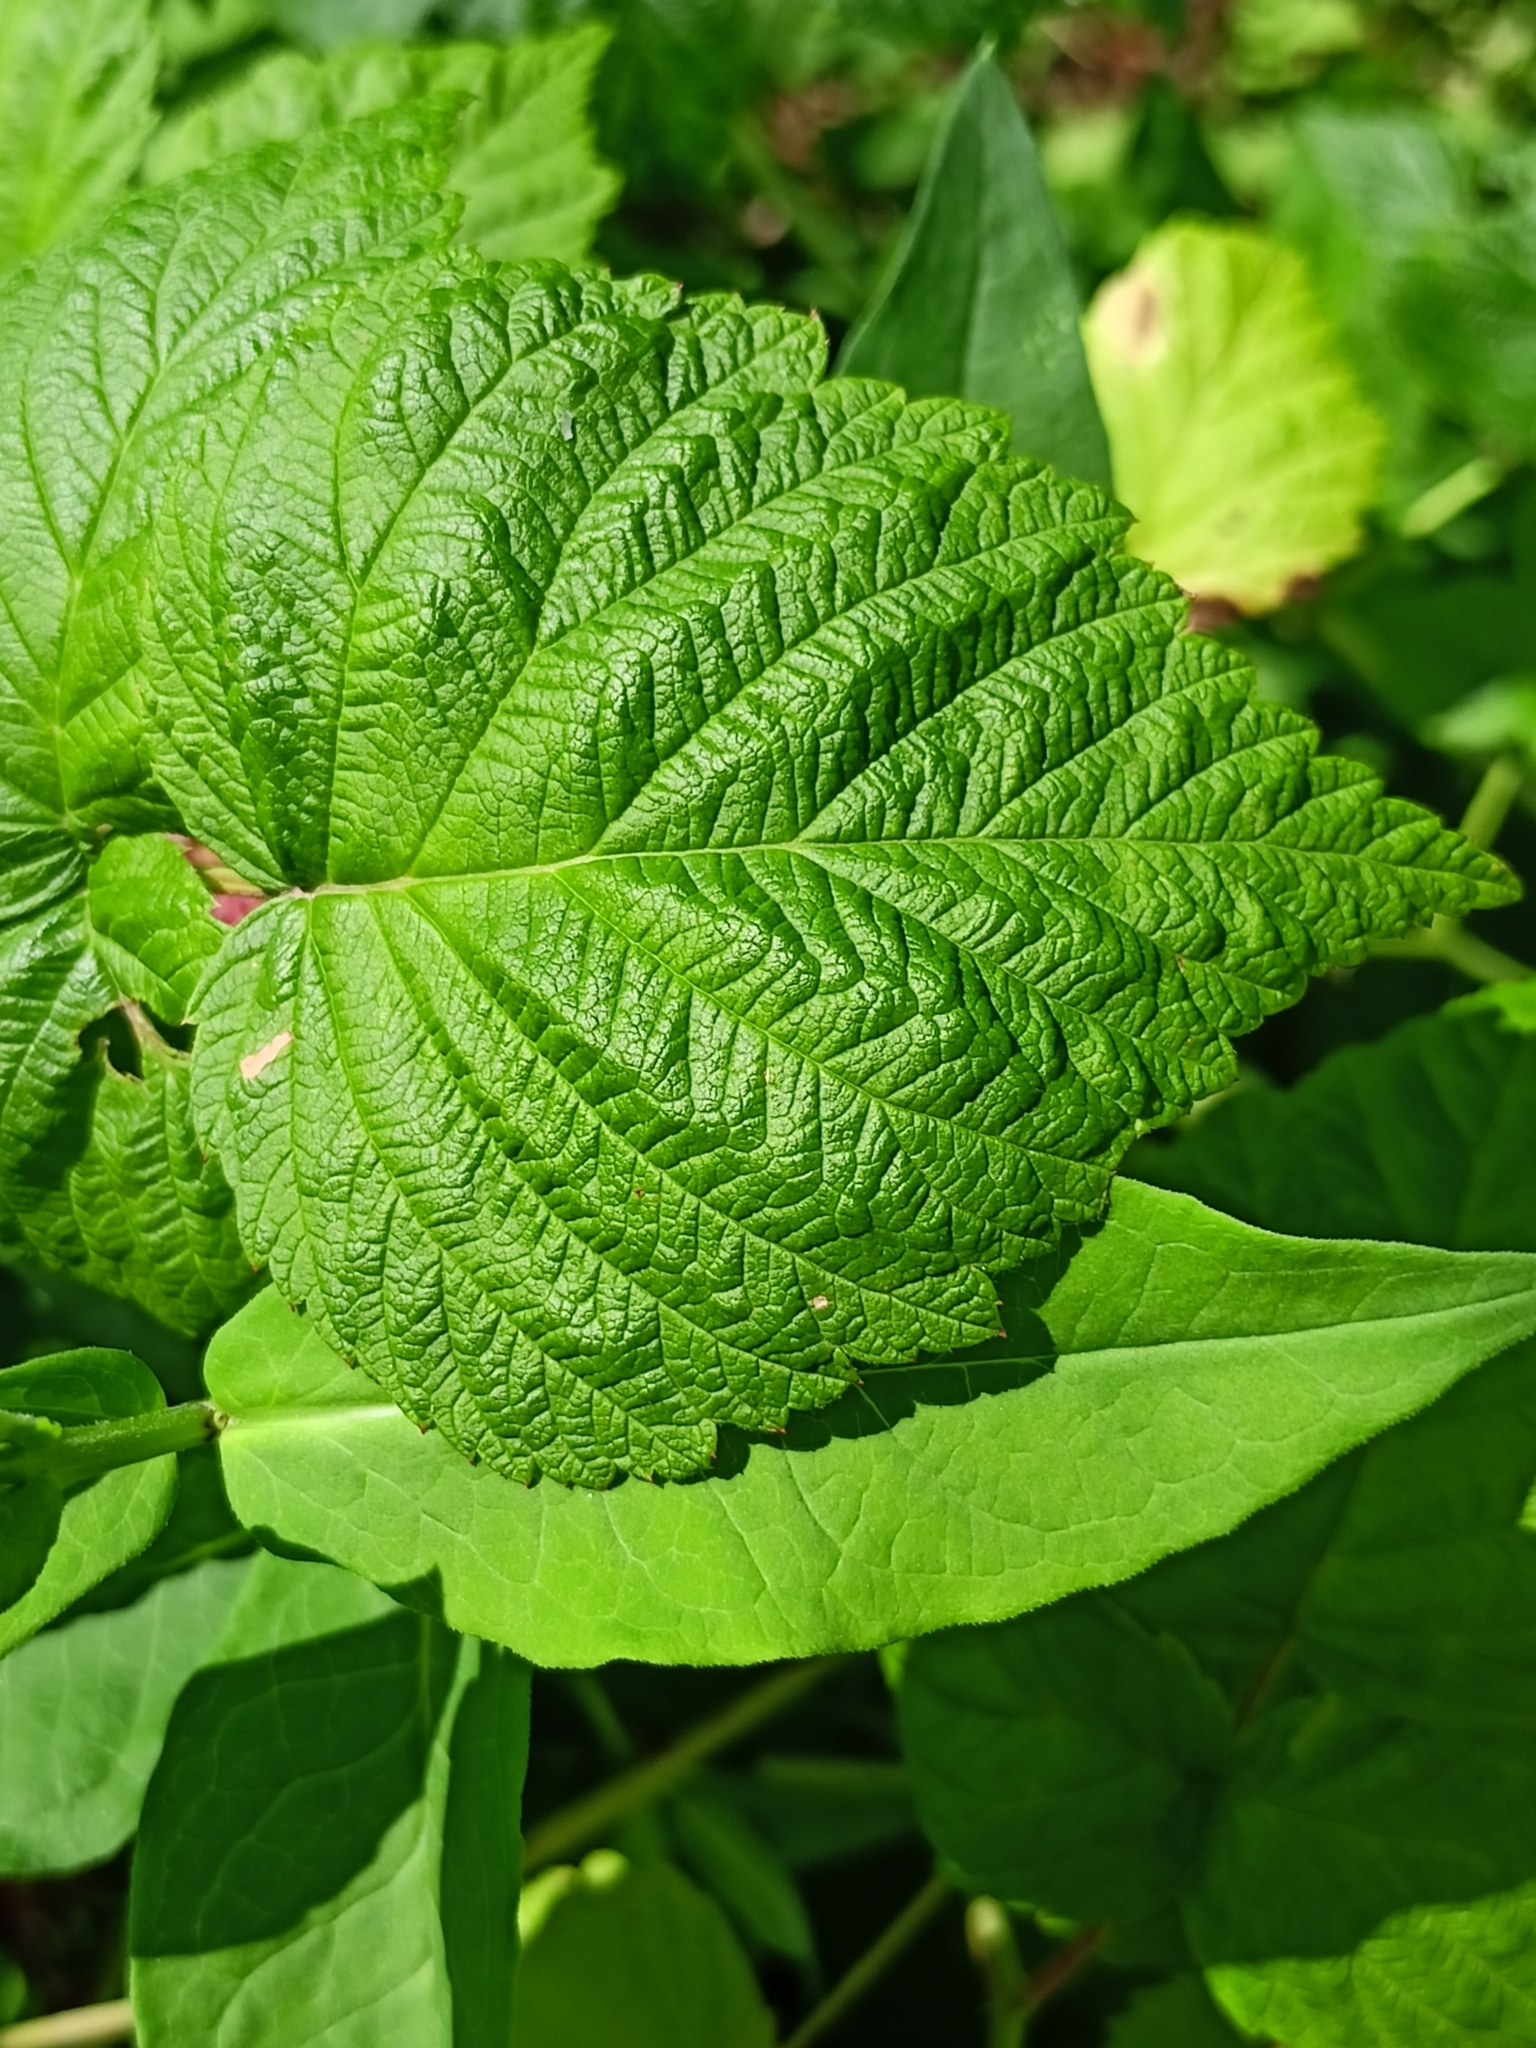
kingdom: Plantae
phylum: Tracheophyta
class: Magnoliopsida
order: Rosales
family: Rosaceae
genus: Rubus
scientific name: Rubus idaeus
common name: Raspberry
